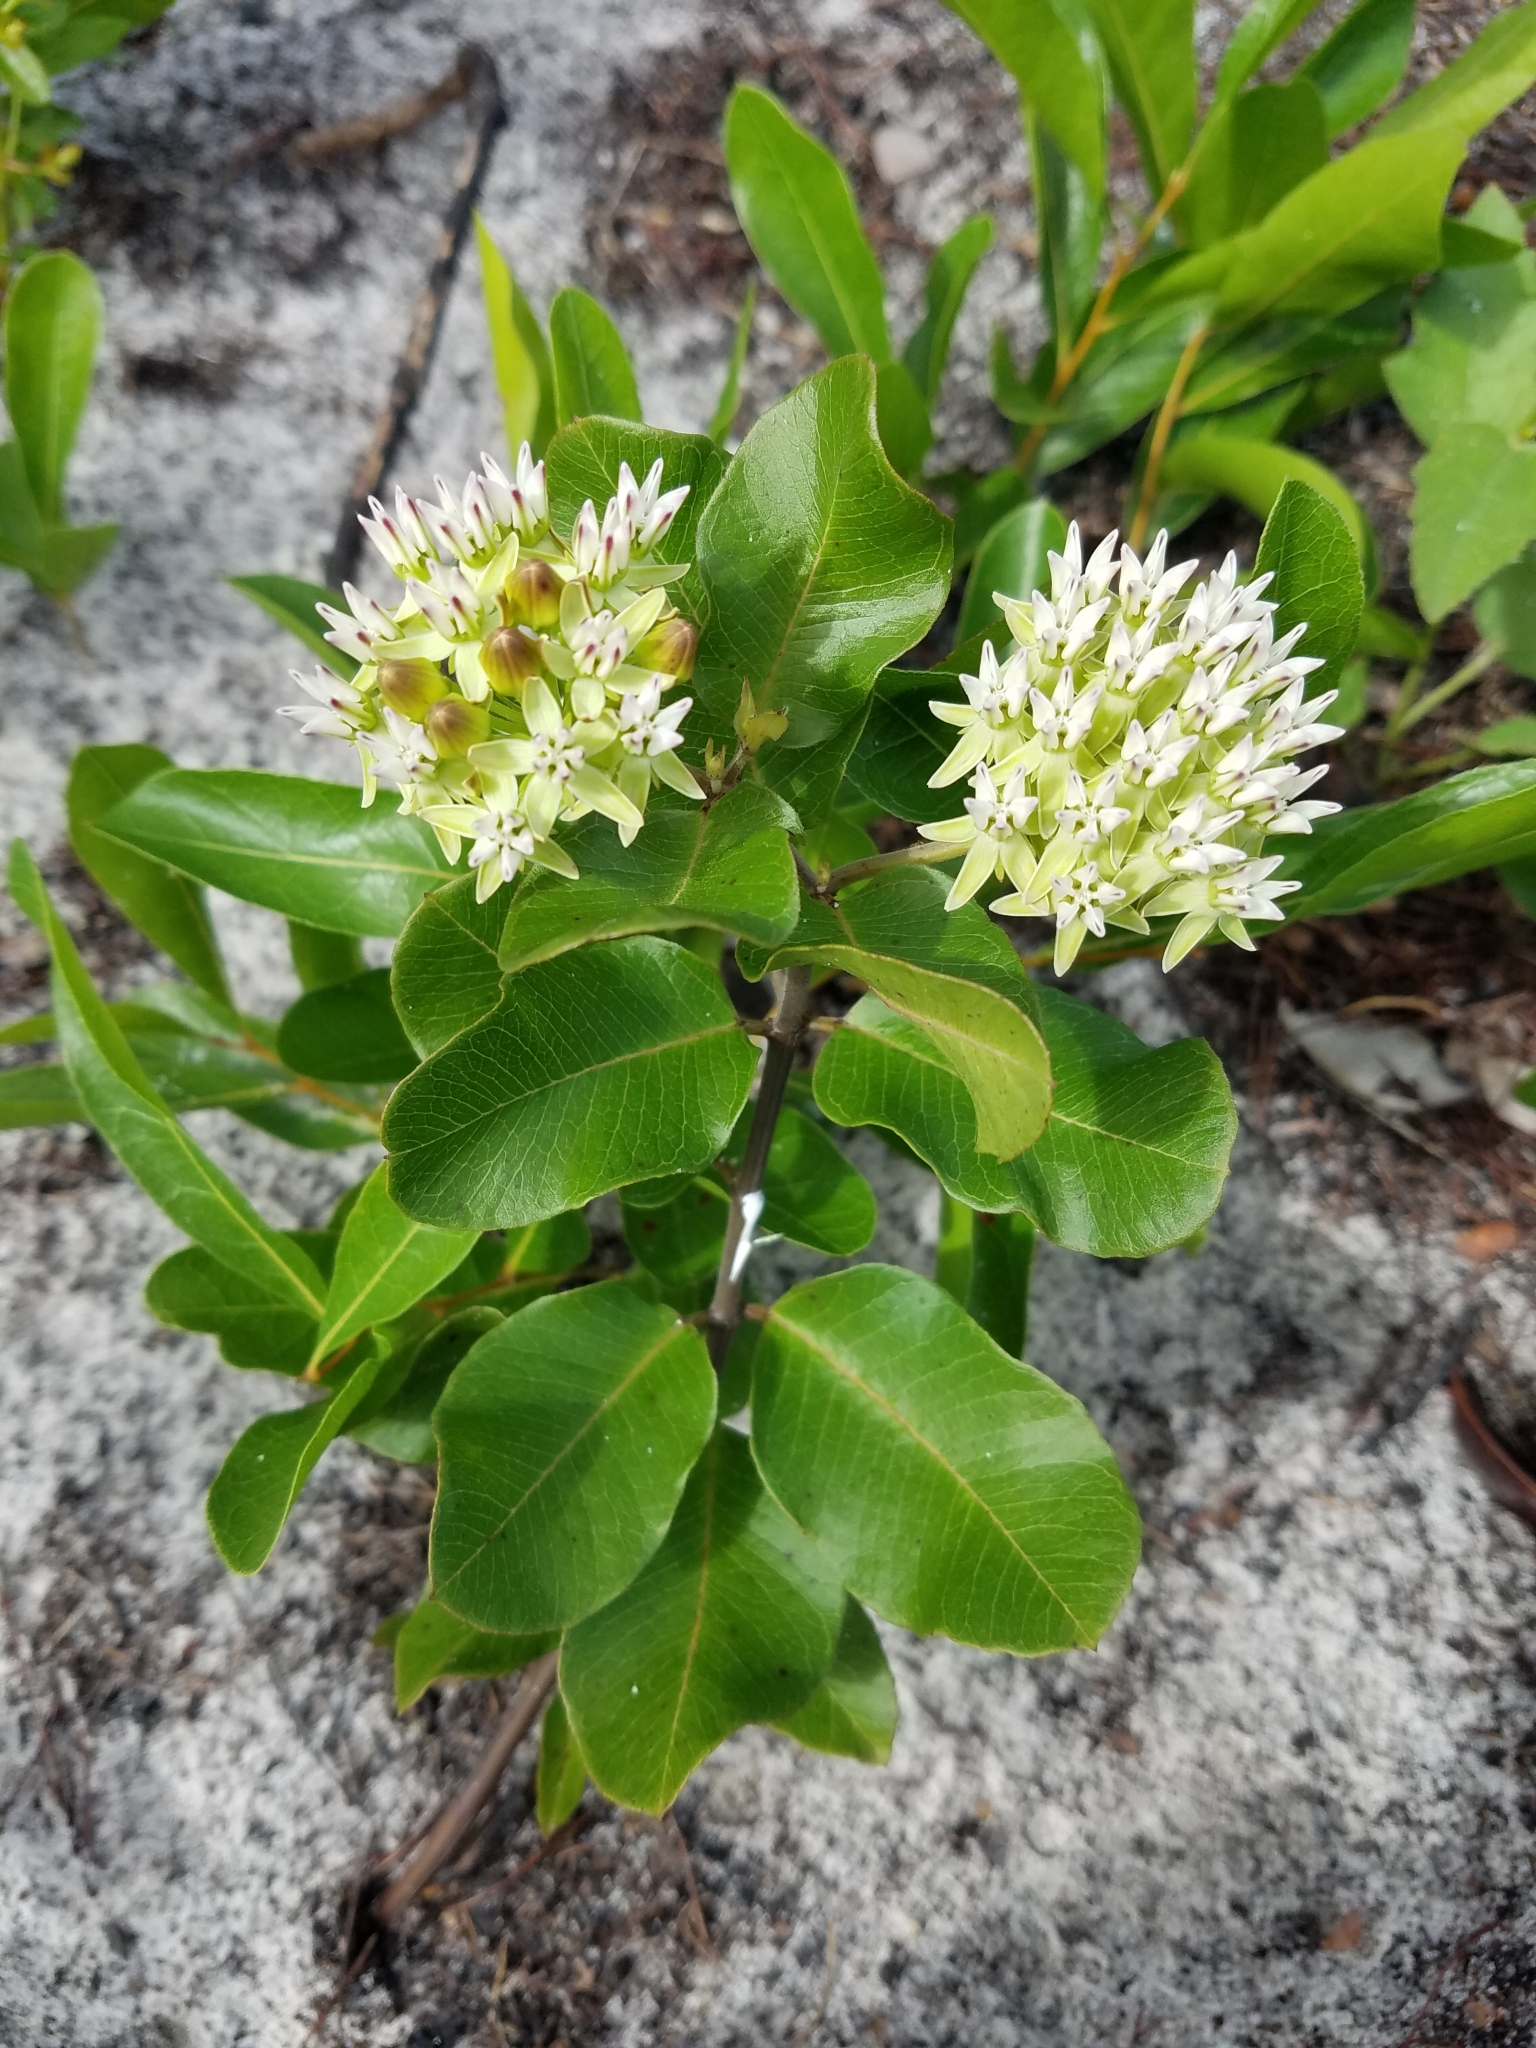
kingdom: Plantae
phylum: Tracheophyta
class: Magnoliopsida
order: Gentianales
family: Apocynaceae
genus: Asclepias
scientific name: Asclepias curtissii
